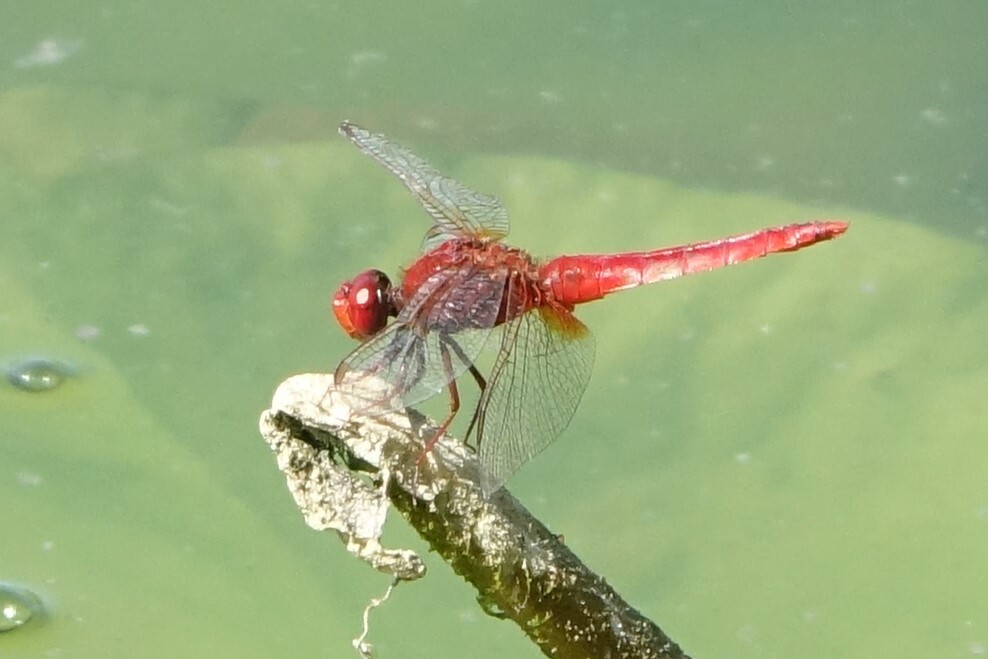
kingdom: Animalia
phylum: Arthropoda
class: Insecta
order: Odonata
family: Libellulidae
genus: Crocothemis
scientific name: Crocothemis erythraea
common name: Scarlet dragonfly
